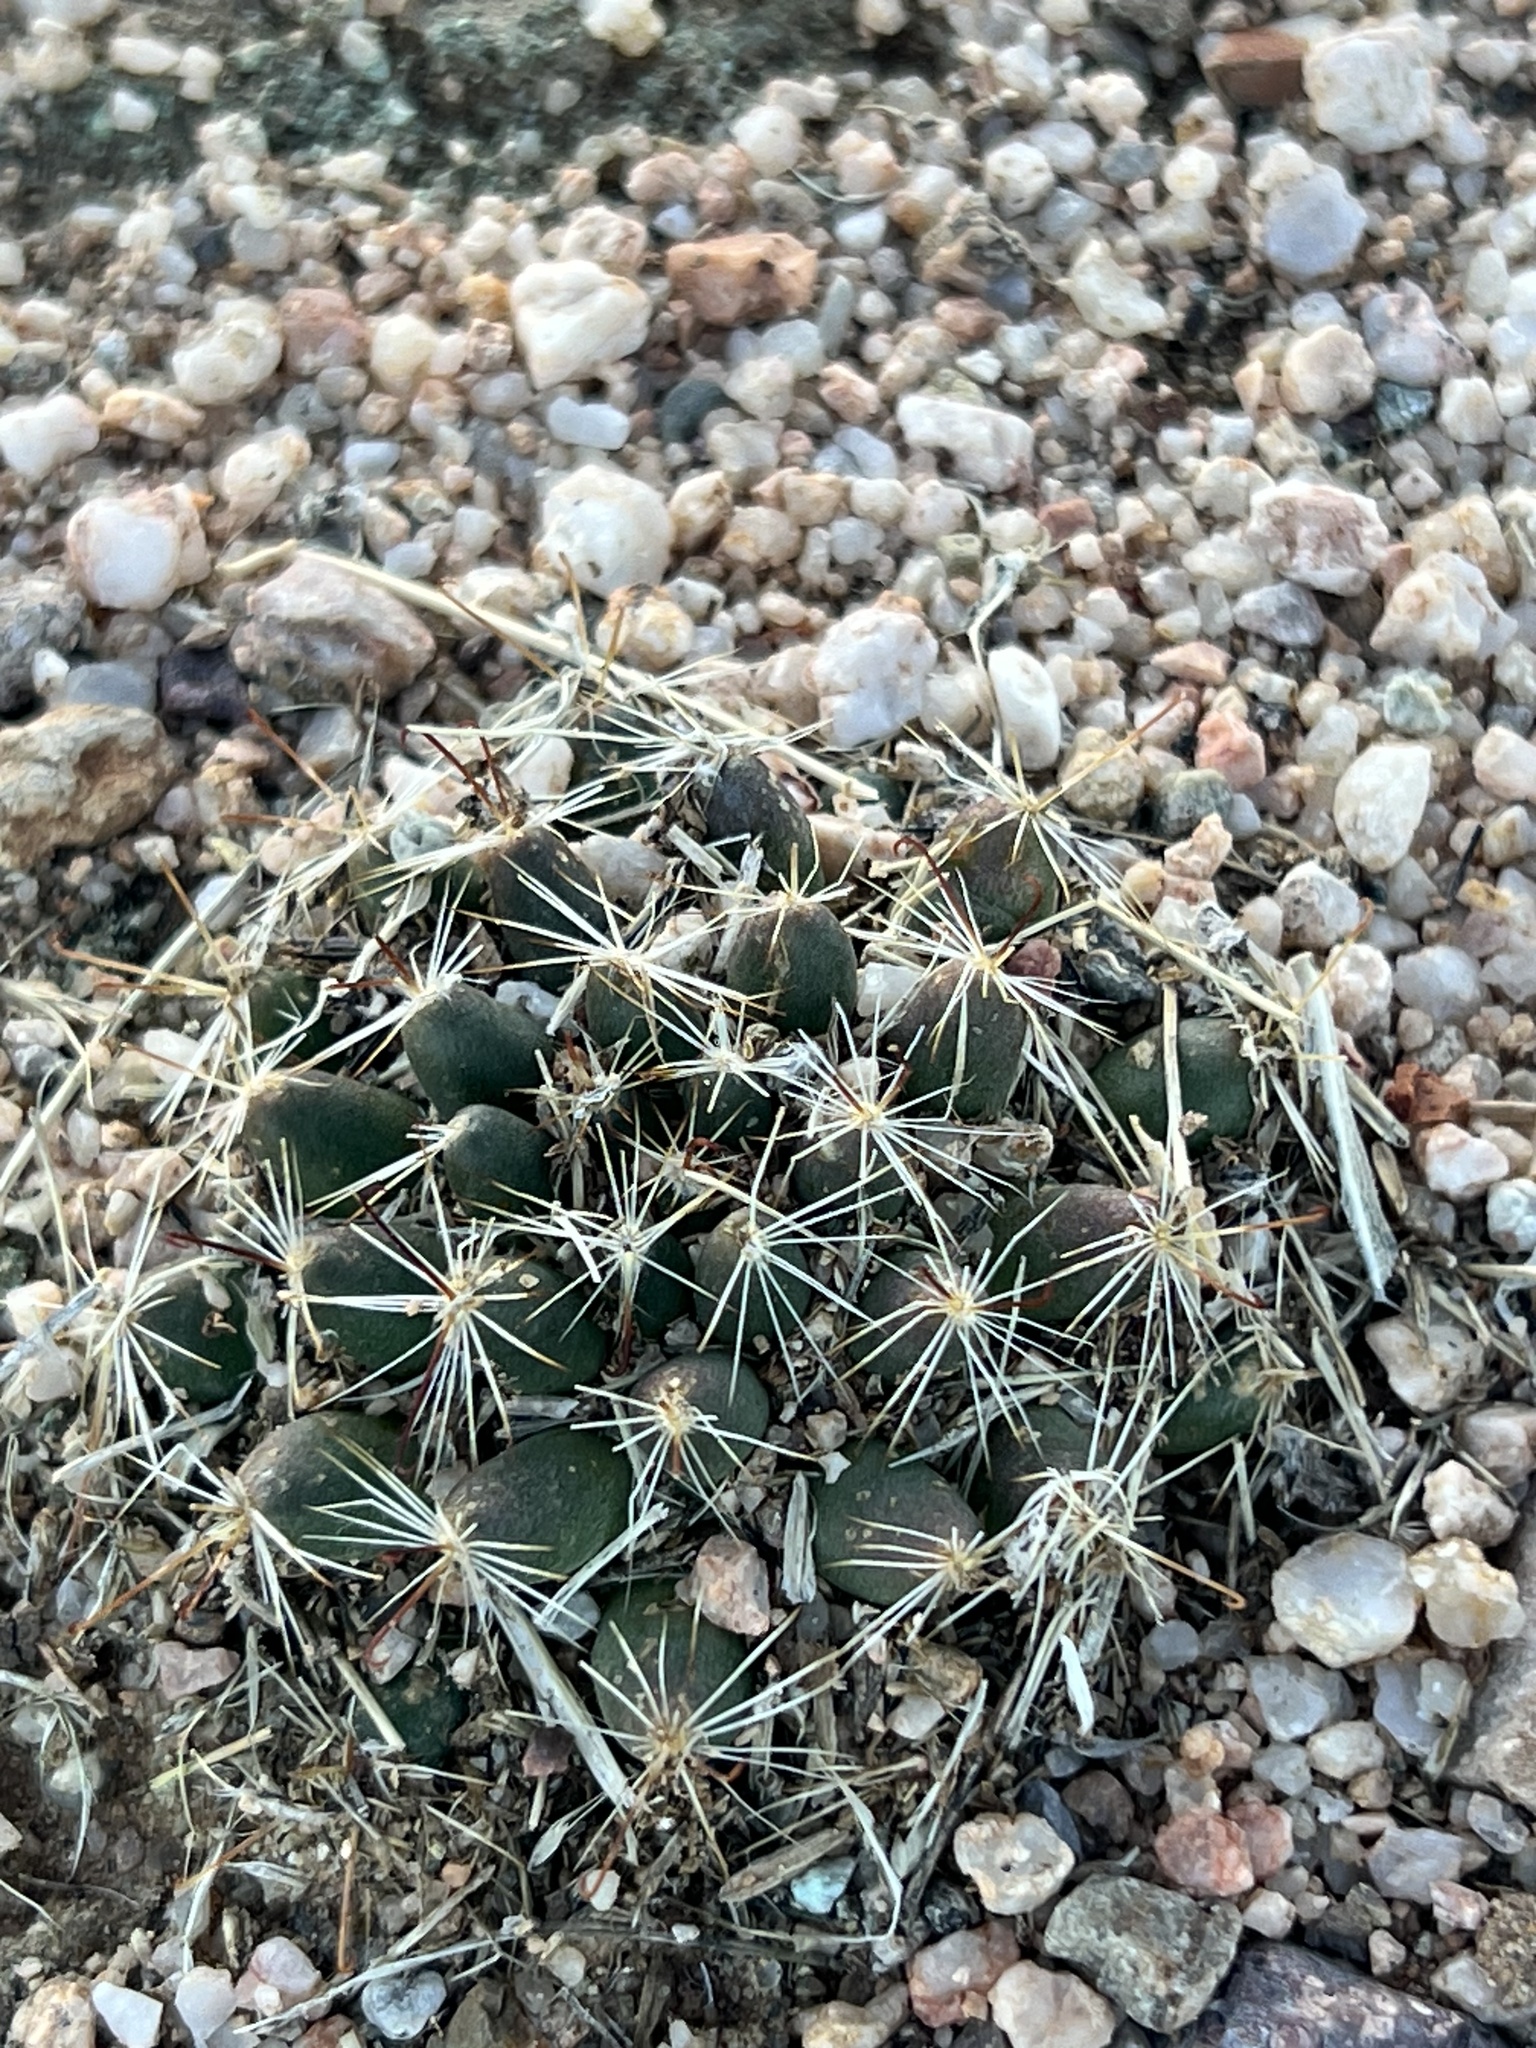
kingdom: Plantae
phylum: Tracheophyta
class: Magnoliopsida
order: Caryophyllales
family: Cactaceae
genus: Cochemiea
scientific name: Cochemiea wrightii
